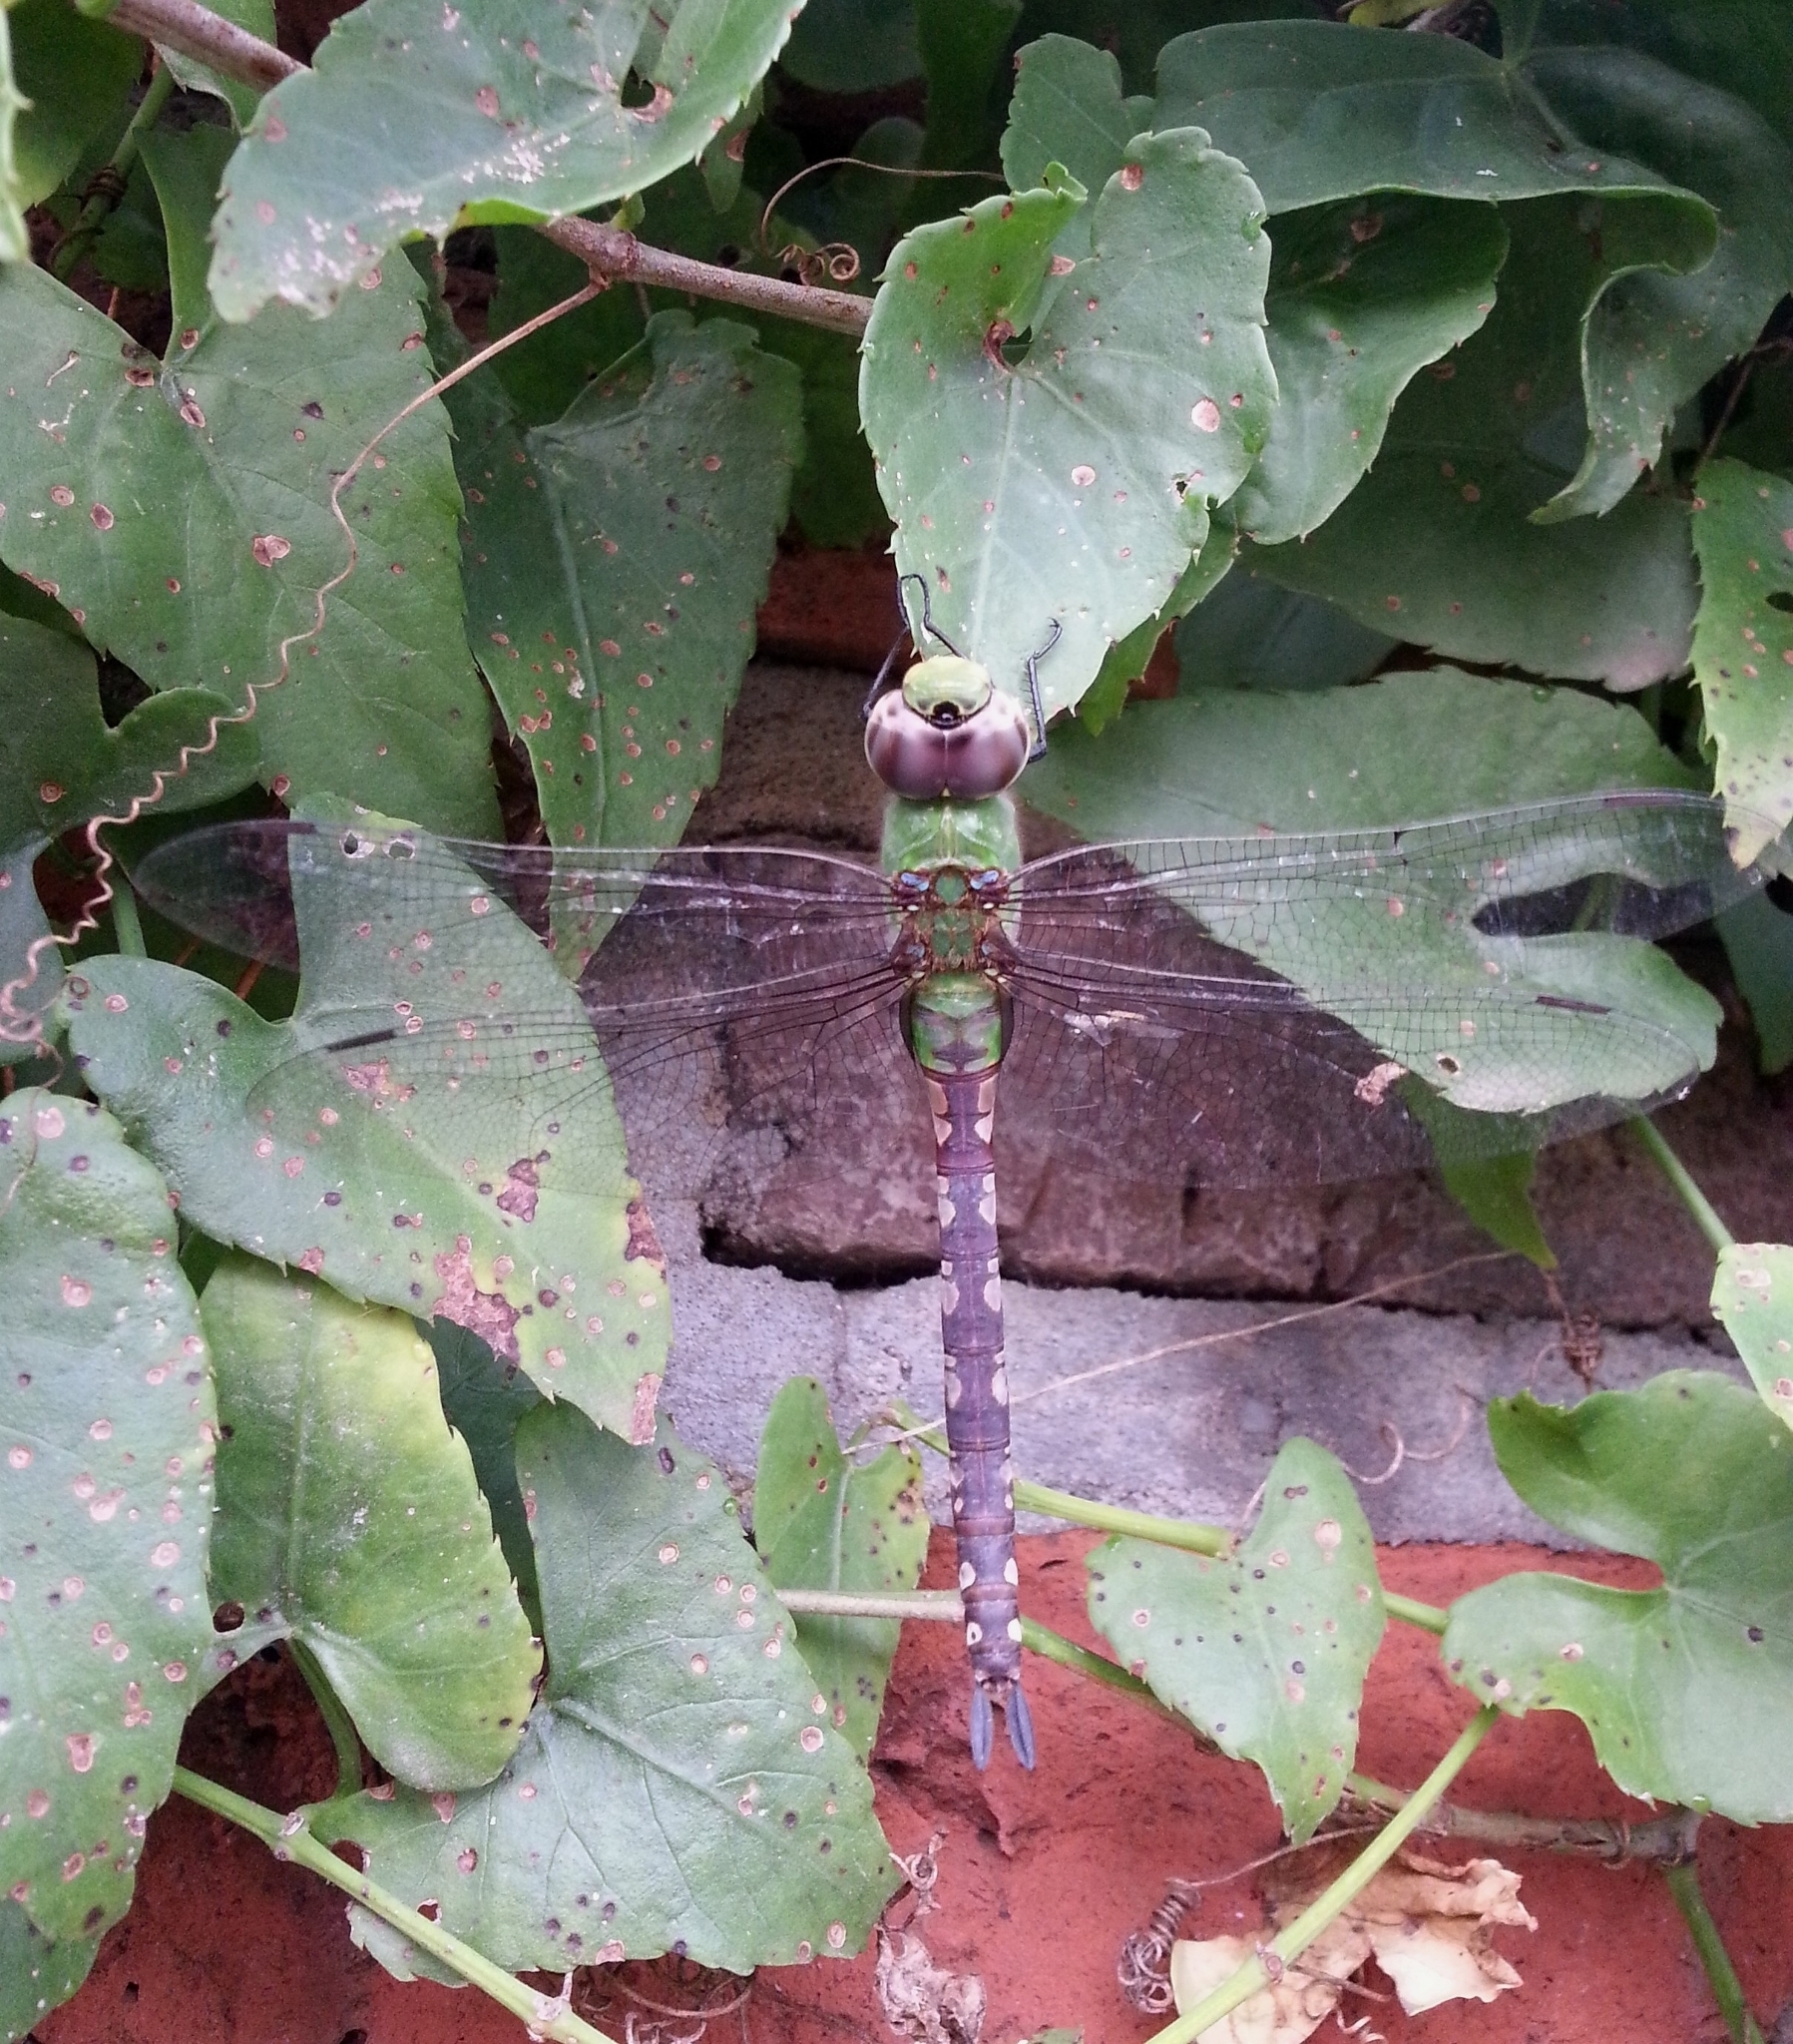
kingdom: Animalia
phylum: Arthropoda
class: Insecta
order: Odonata
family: Aeshnidae
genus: Anax
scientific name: Anax amazili
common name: Amazon darner
